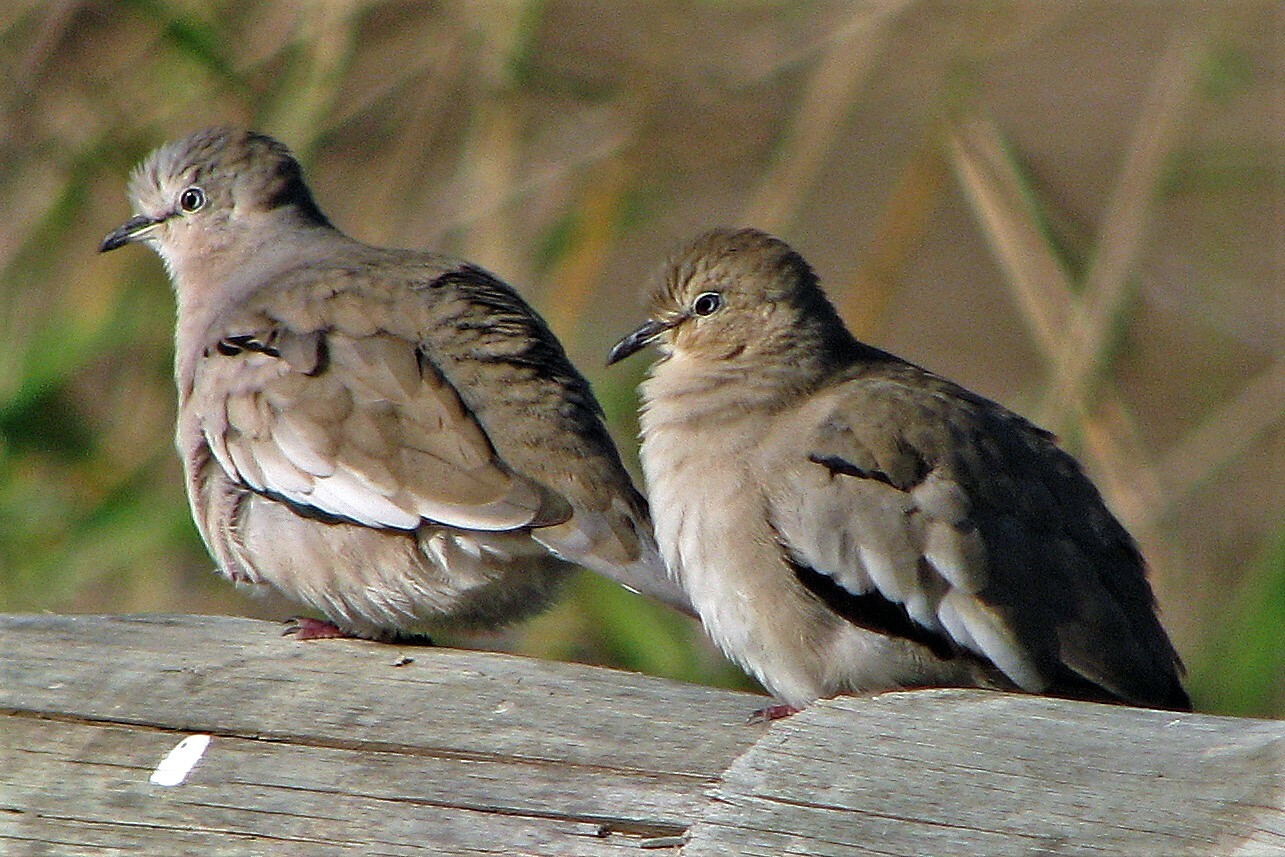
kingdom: Animalia
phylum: Chordata
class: Aves
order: Columbiformes
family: Columbidae
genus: Columbina
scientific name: Columbina picui
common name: Picui ground dove
